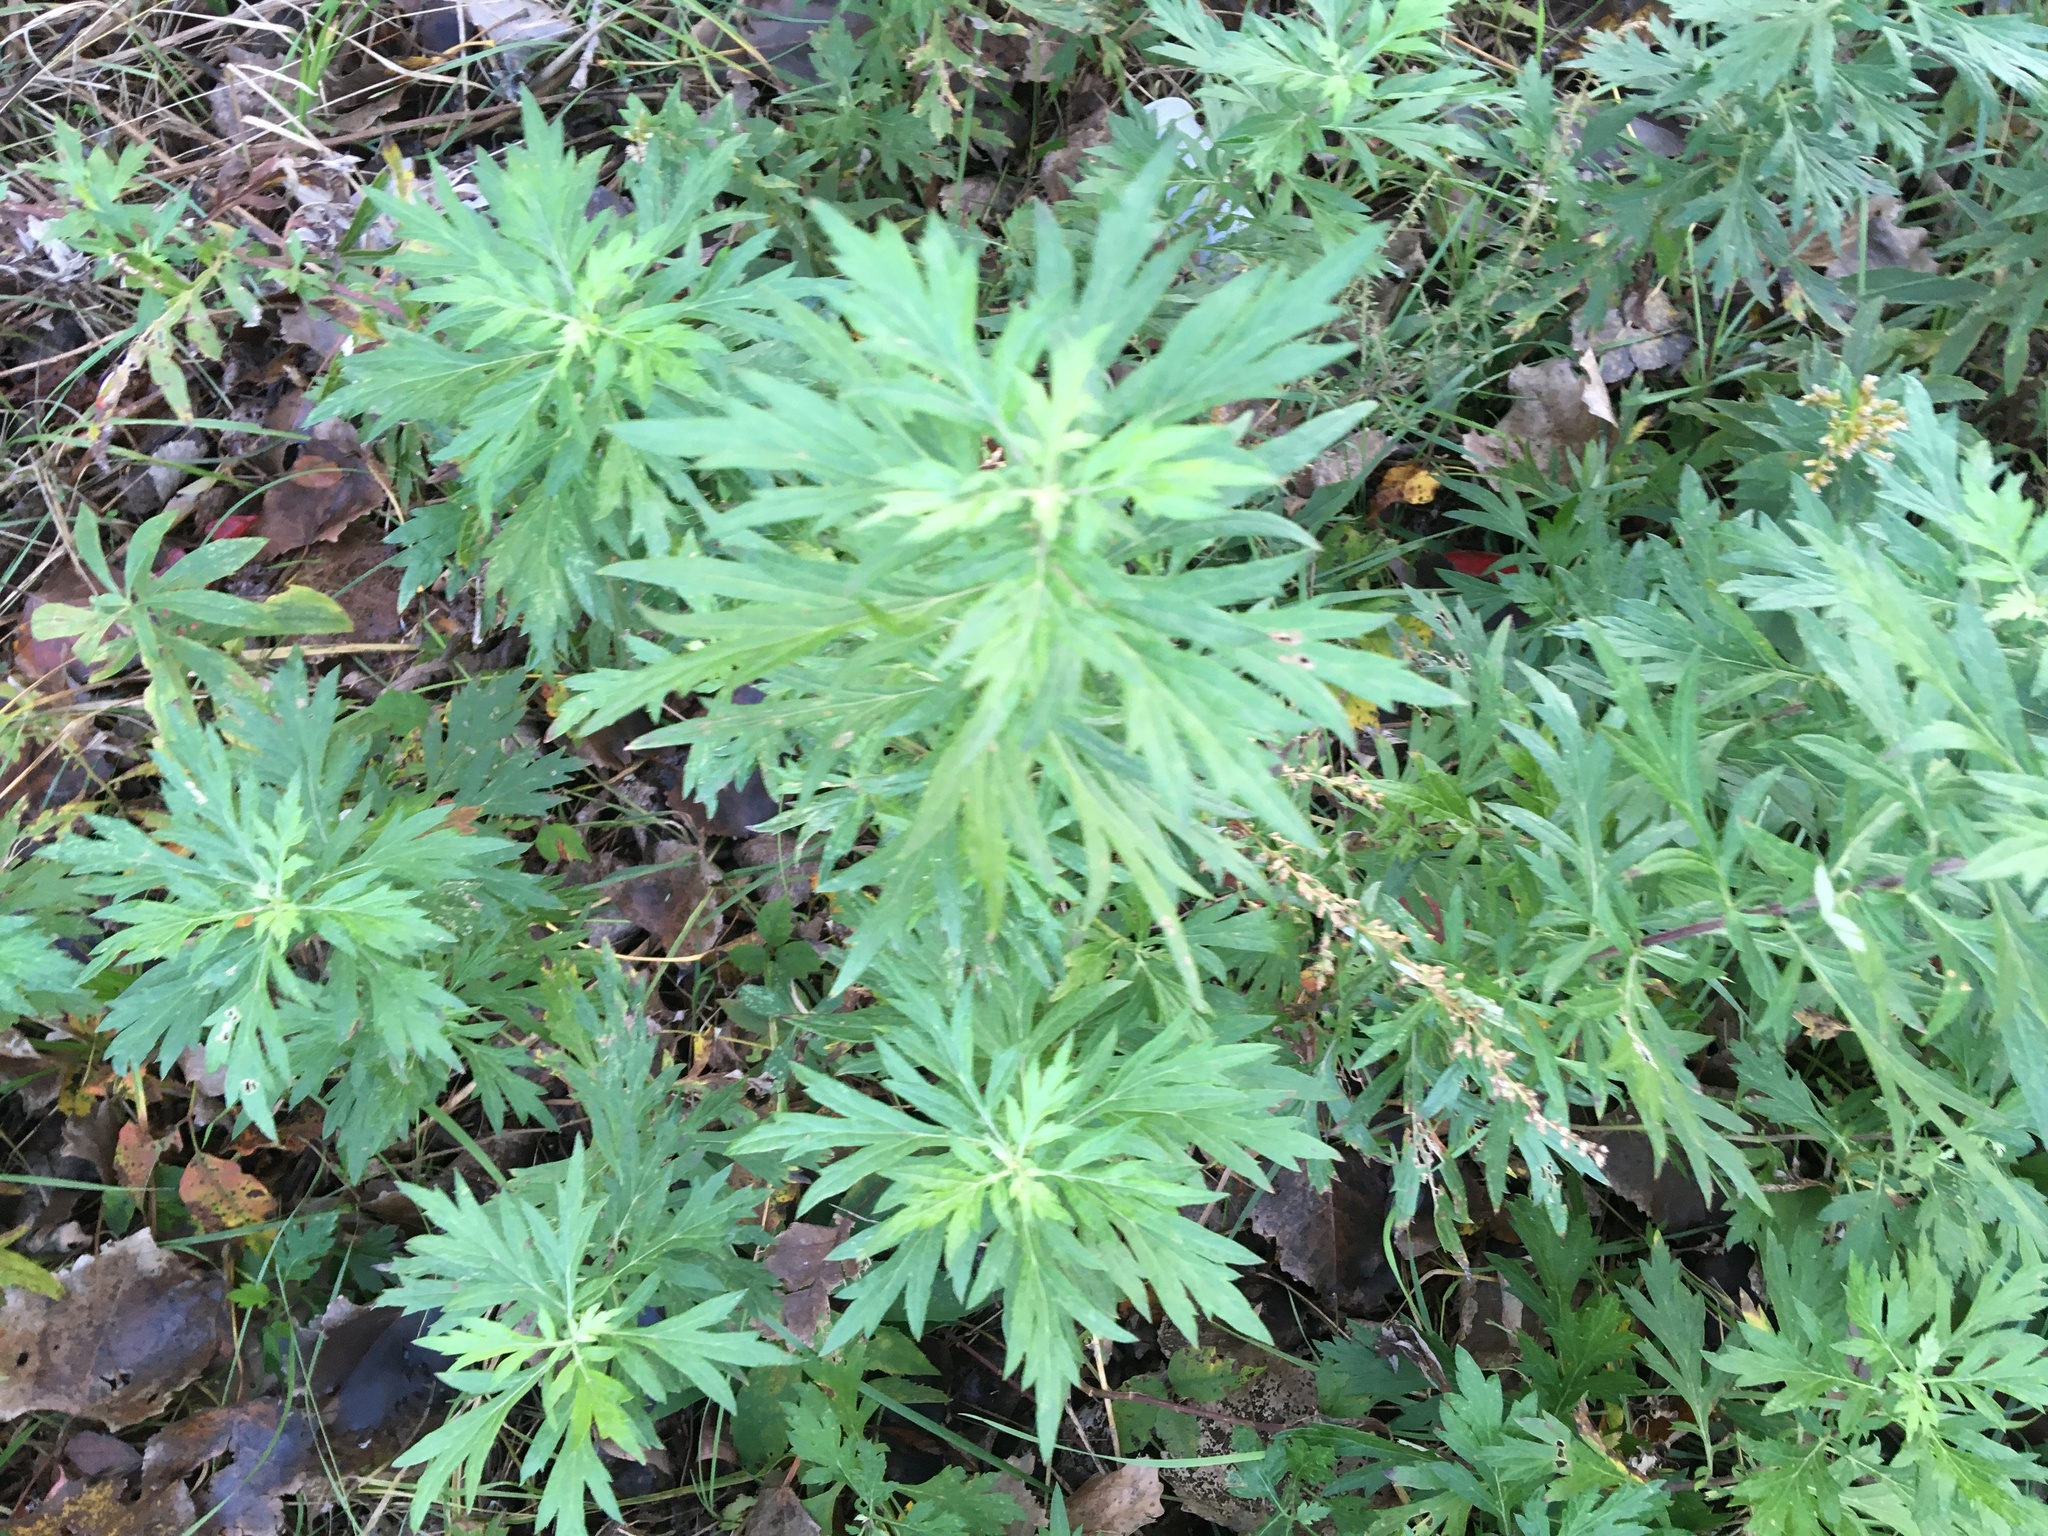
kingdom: Plantae
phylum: Tracheophyta
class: Magnoliopsida
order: Asterales
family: Asteraceae
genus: Artemisia
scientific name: Artemisia vulgaris
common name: Mugwort
